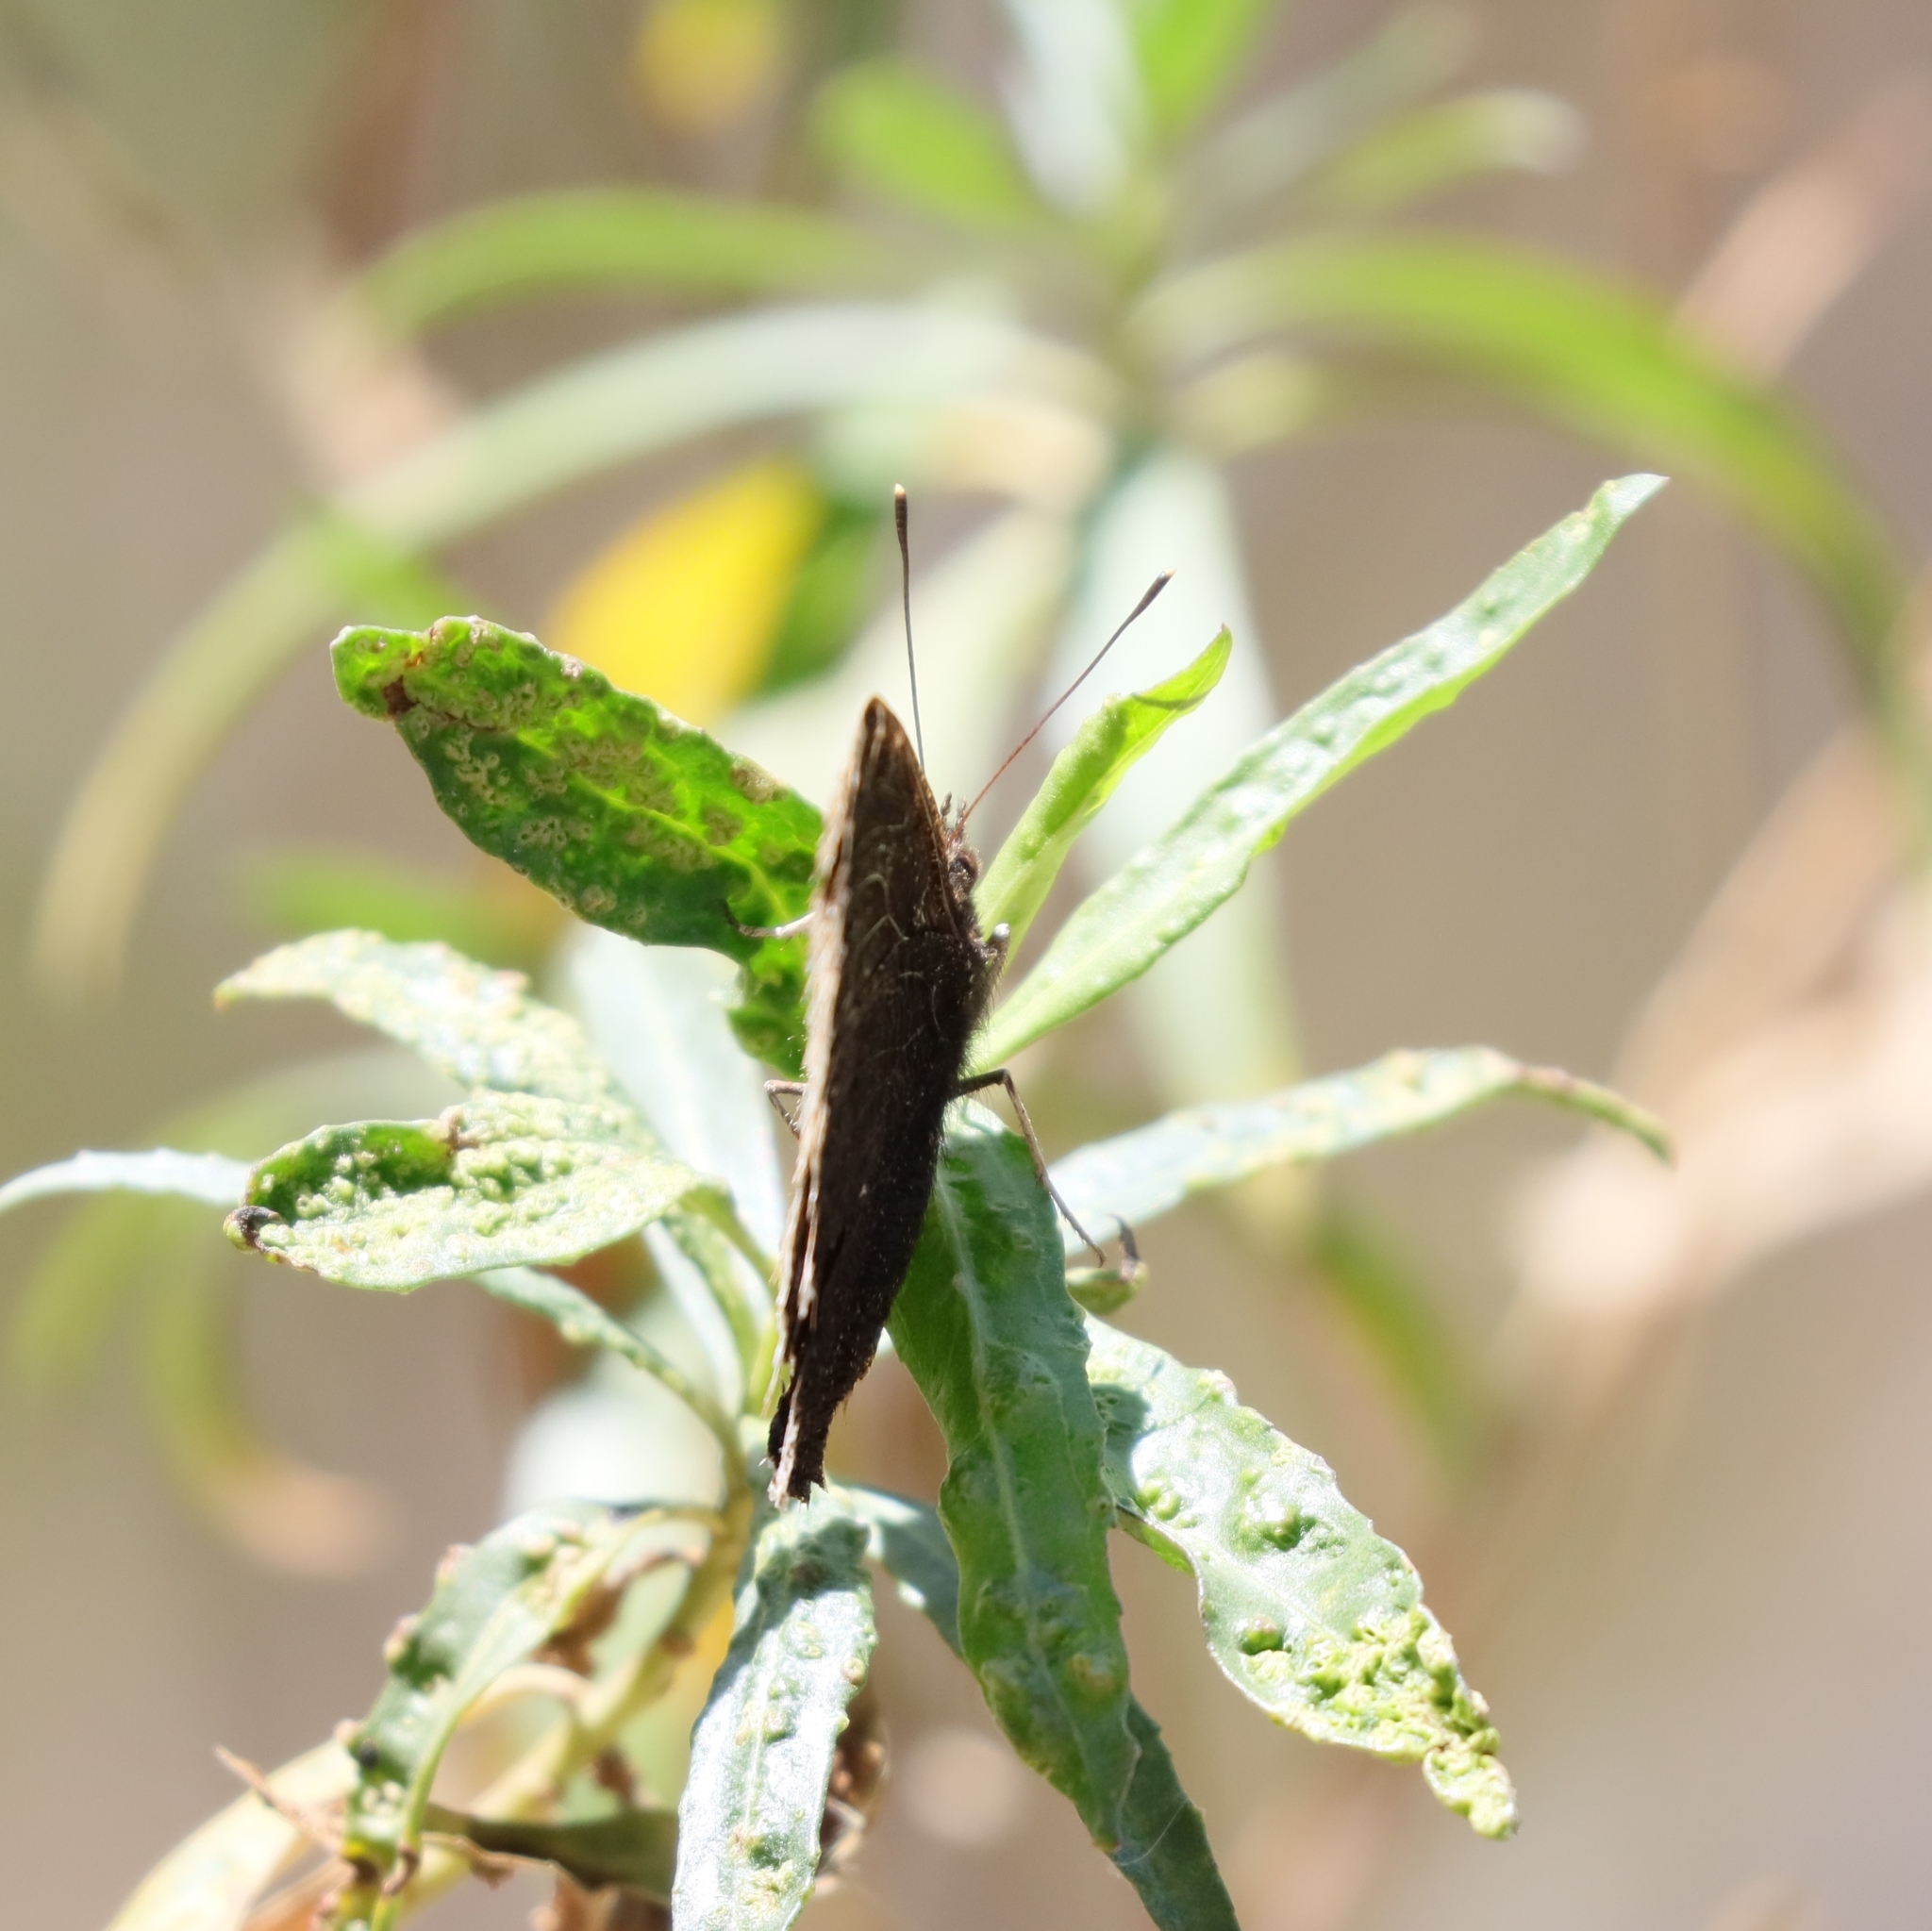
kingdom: Animalia
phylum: Arthropoda
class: Insecta
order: Lepidoptera
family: Nymphalidae
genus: Nymphalis
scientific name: Nymphalis antiopa
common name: Camberwell beauty
